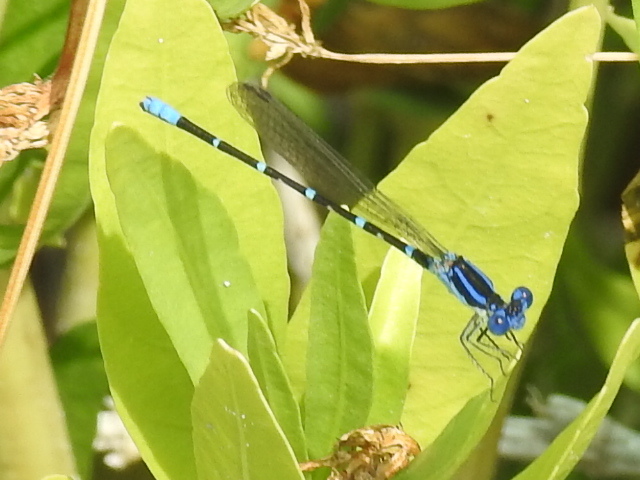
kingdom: Animalia
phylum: Arthropoda
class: Insecta
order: Odonata
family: Coenagrionidae
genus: Argia
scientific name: Argia sedula
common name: Blue-ringed dancer
